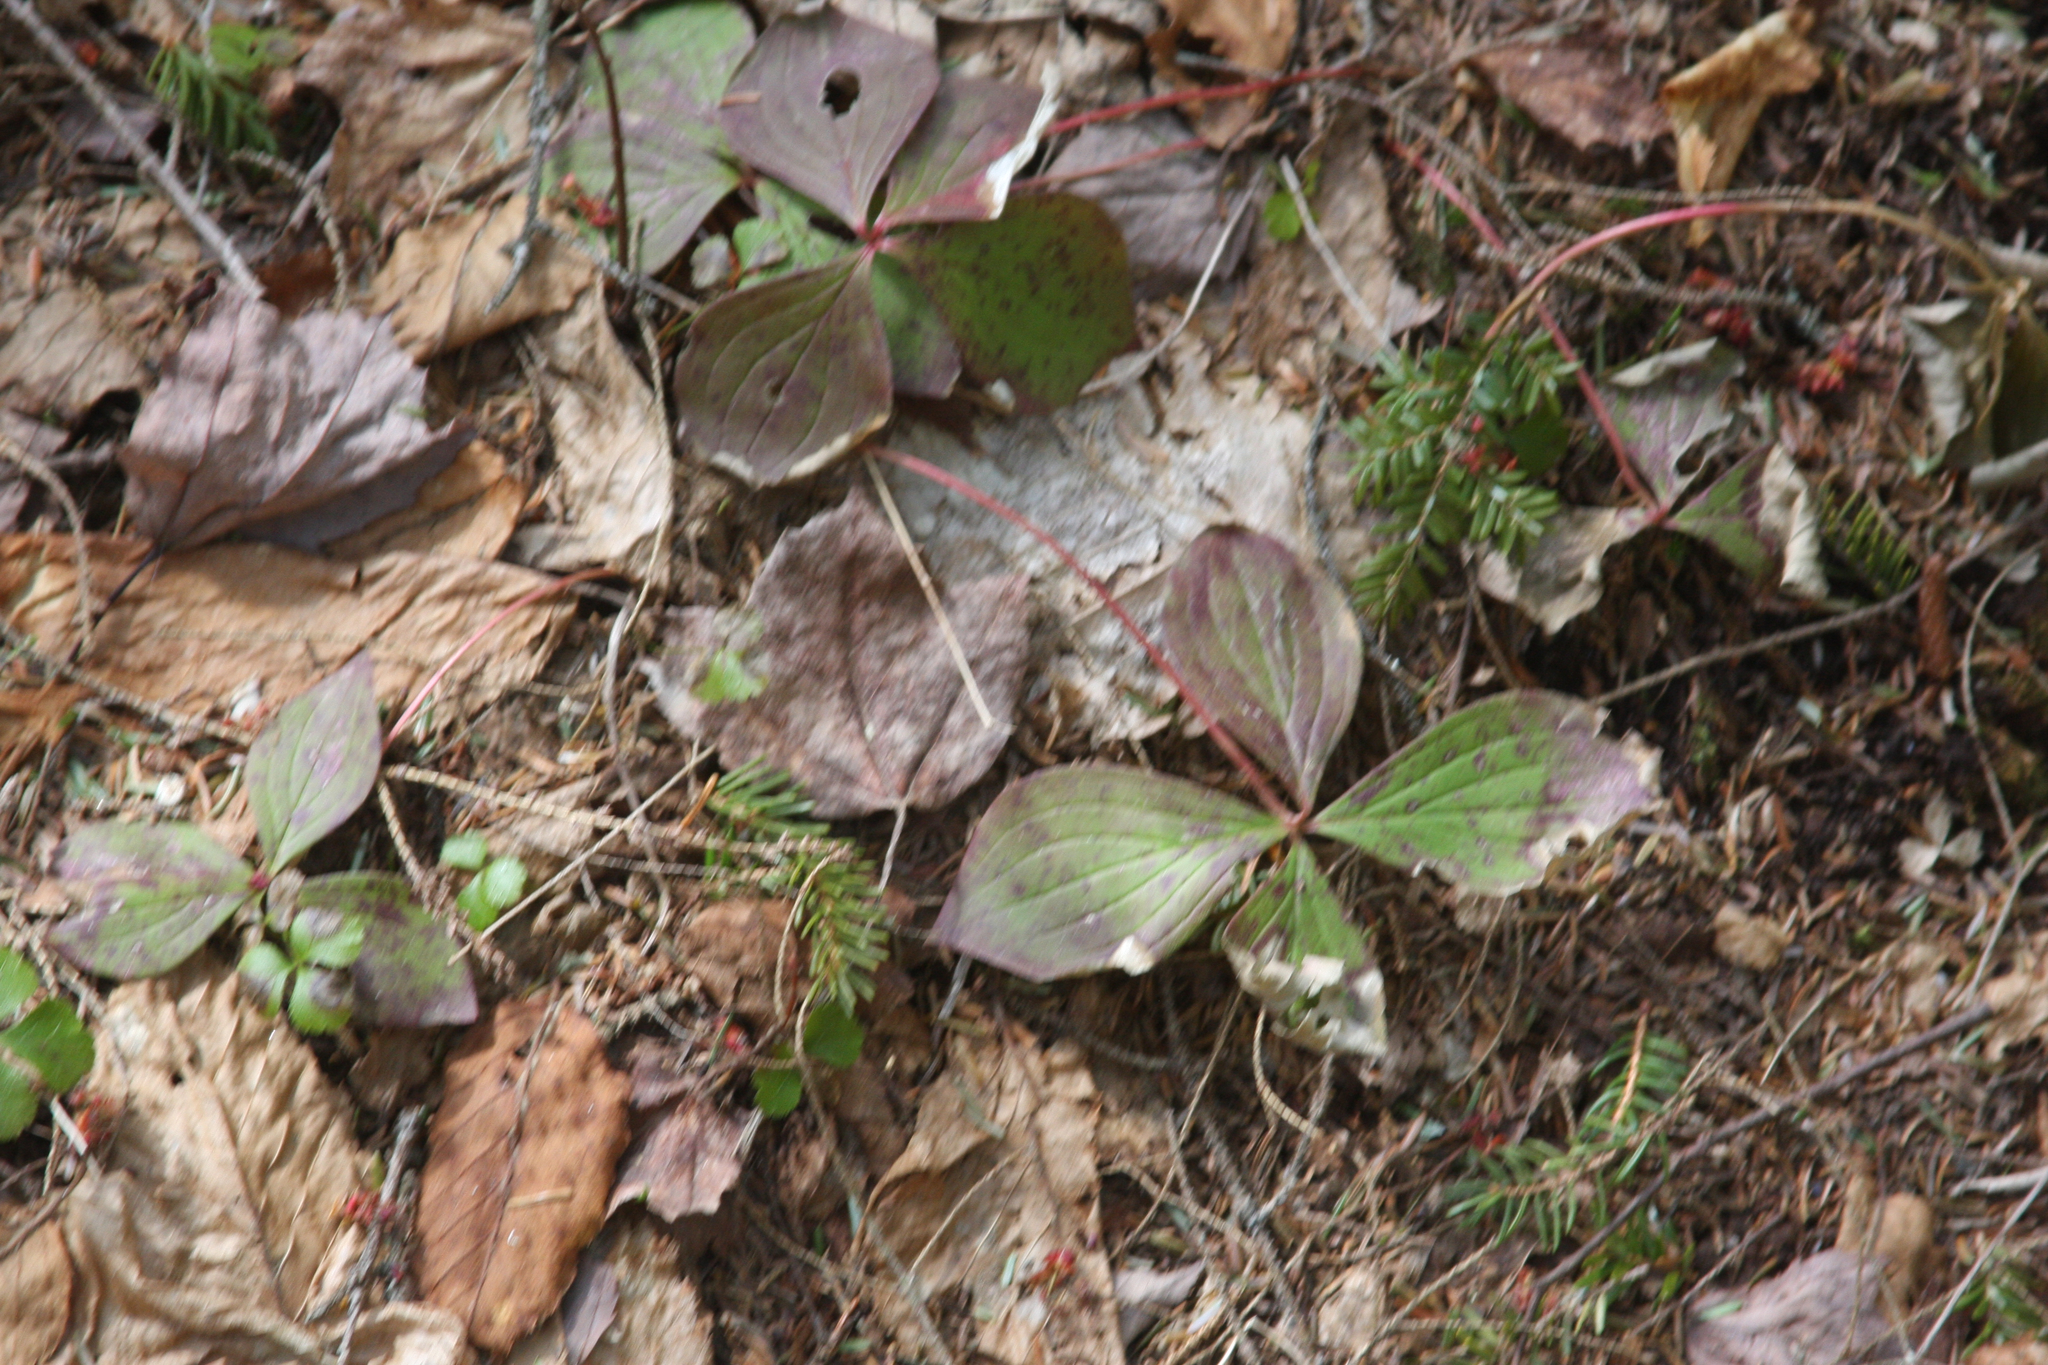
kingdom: Plantae
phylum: Tracheophyta
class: Magnoliopsida
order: Cornales
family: Cornaceae
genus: Cornus
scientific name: Cornus canadensis
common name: Creeping dogwood
